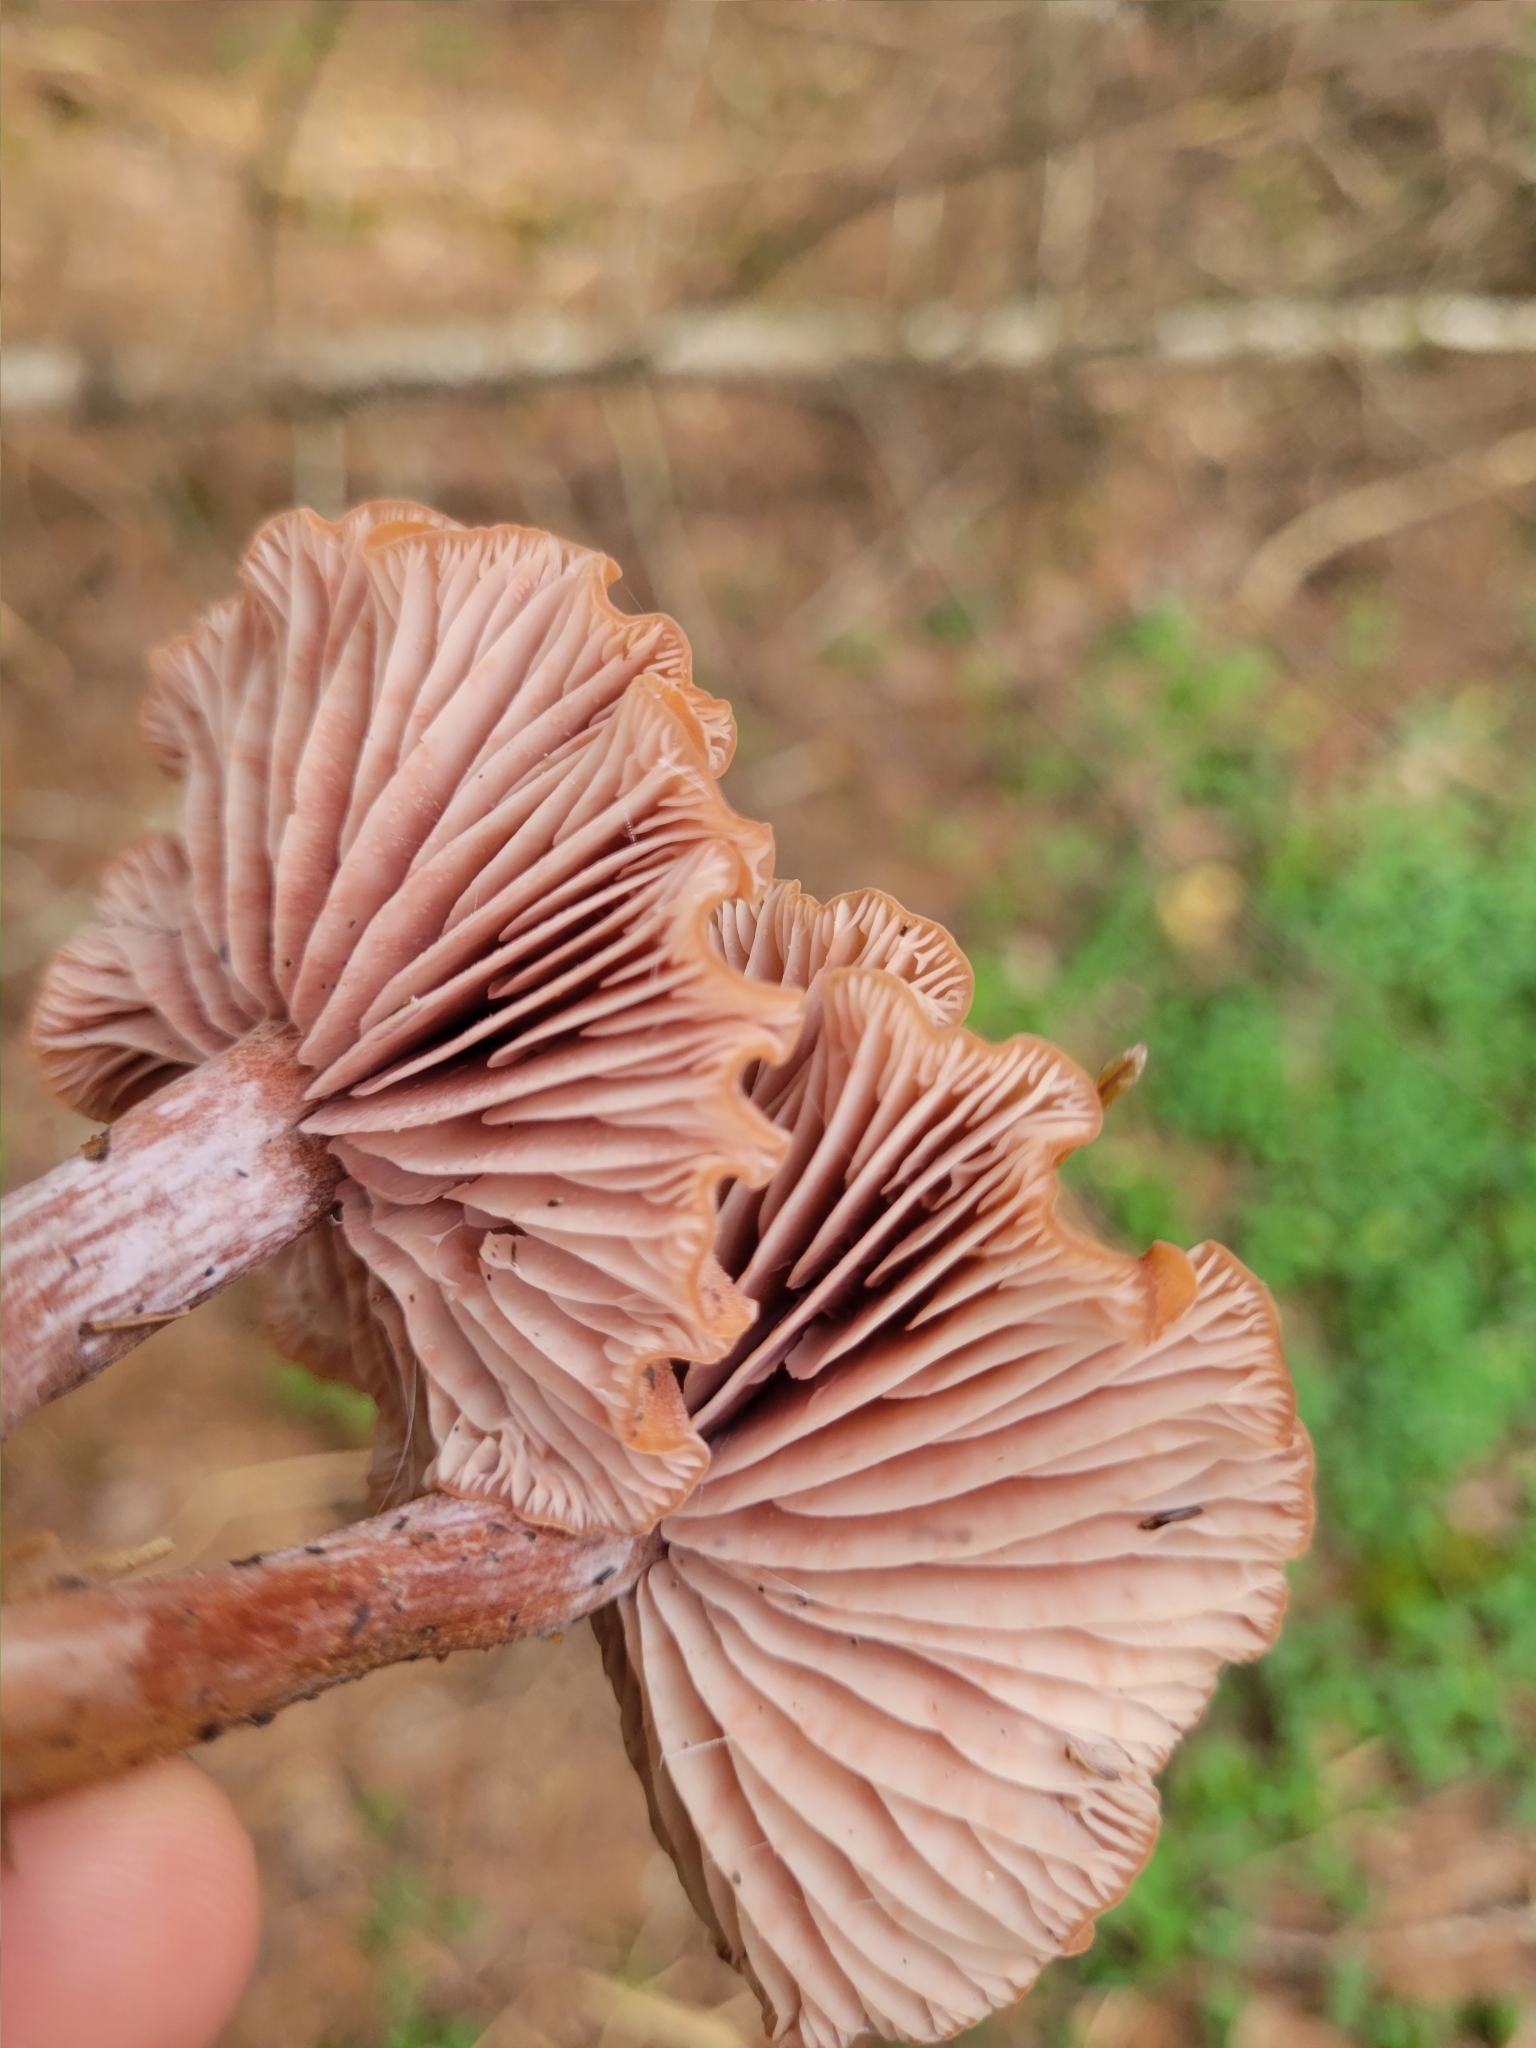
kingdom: Fungi
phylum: Basidiomycota
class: Agaricomycetes
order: Agaricales
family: Hydnangiaceae
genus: Laccaria
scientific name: Laccaria laccata
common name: Deceiver
